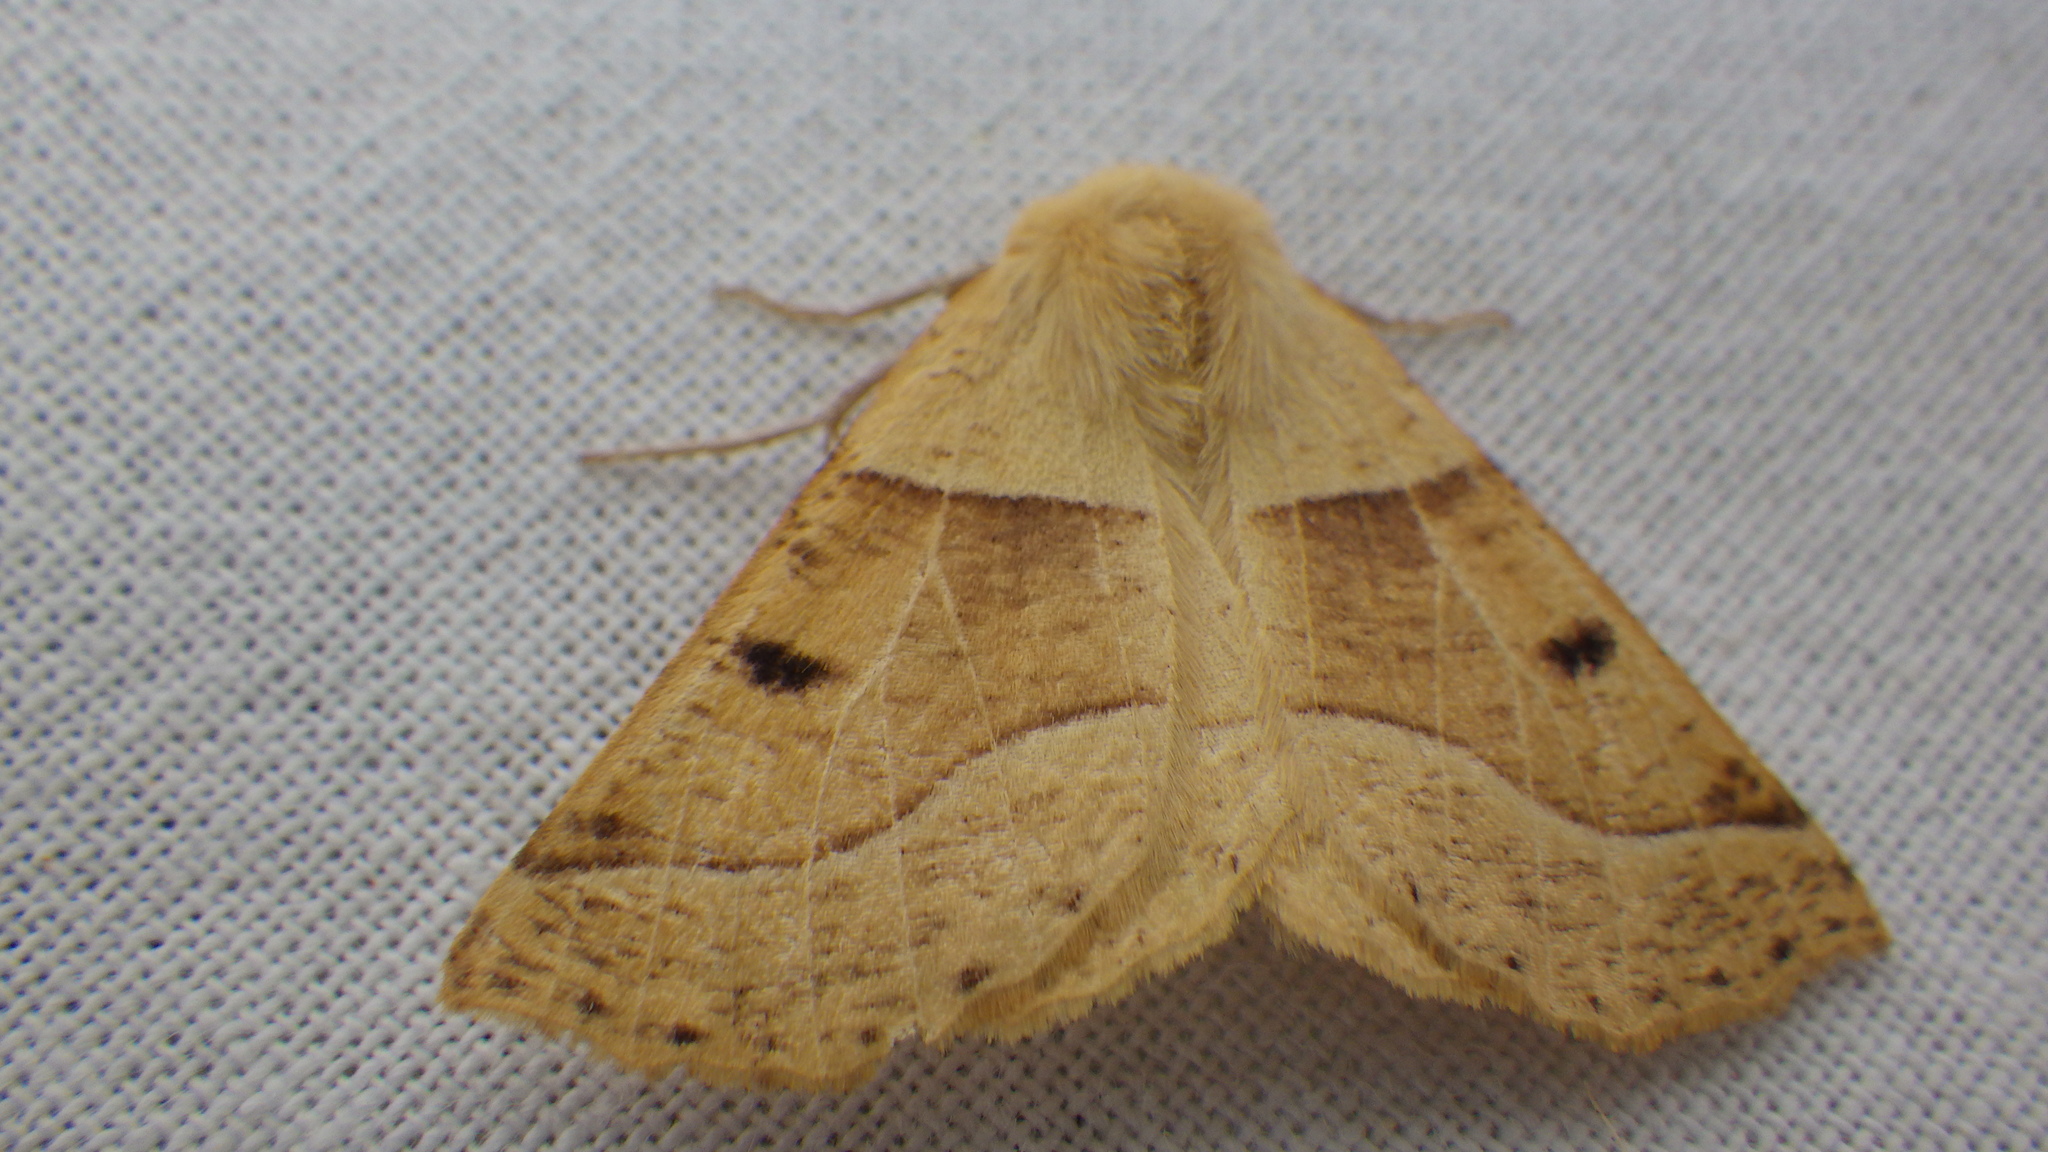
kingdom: Animalia
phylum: Arthropoda
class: Insecta
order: Lepidoptera
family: Geometridae
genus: Crocallis
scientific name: Crocallis elinguaria
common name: Scalloped oak
